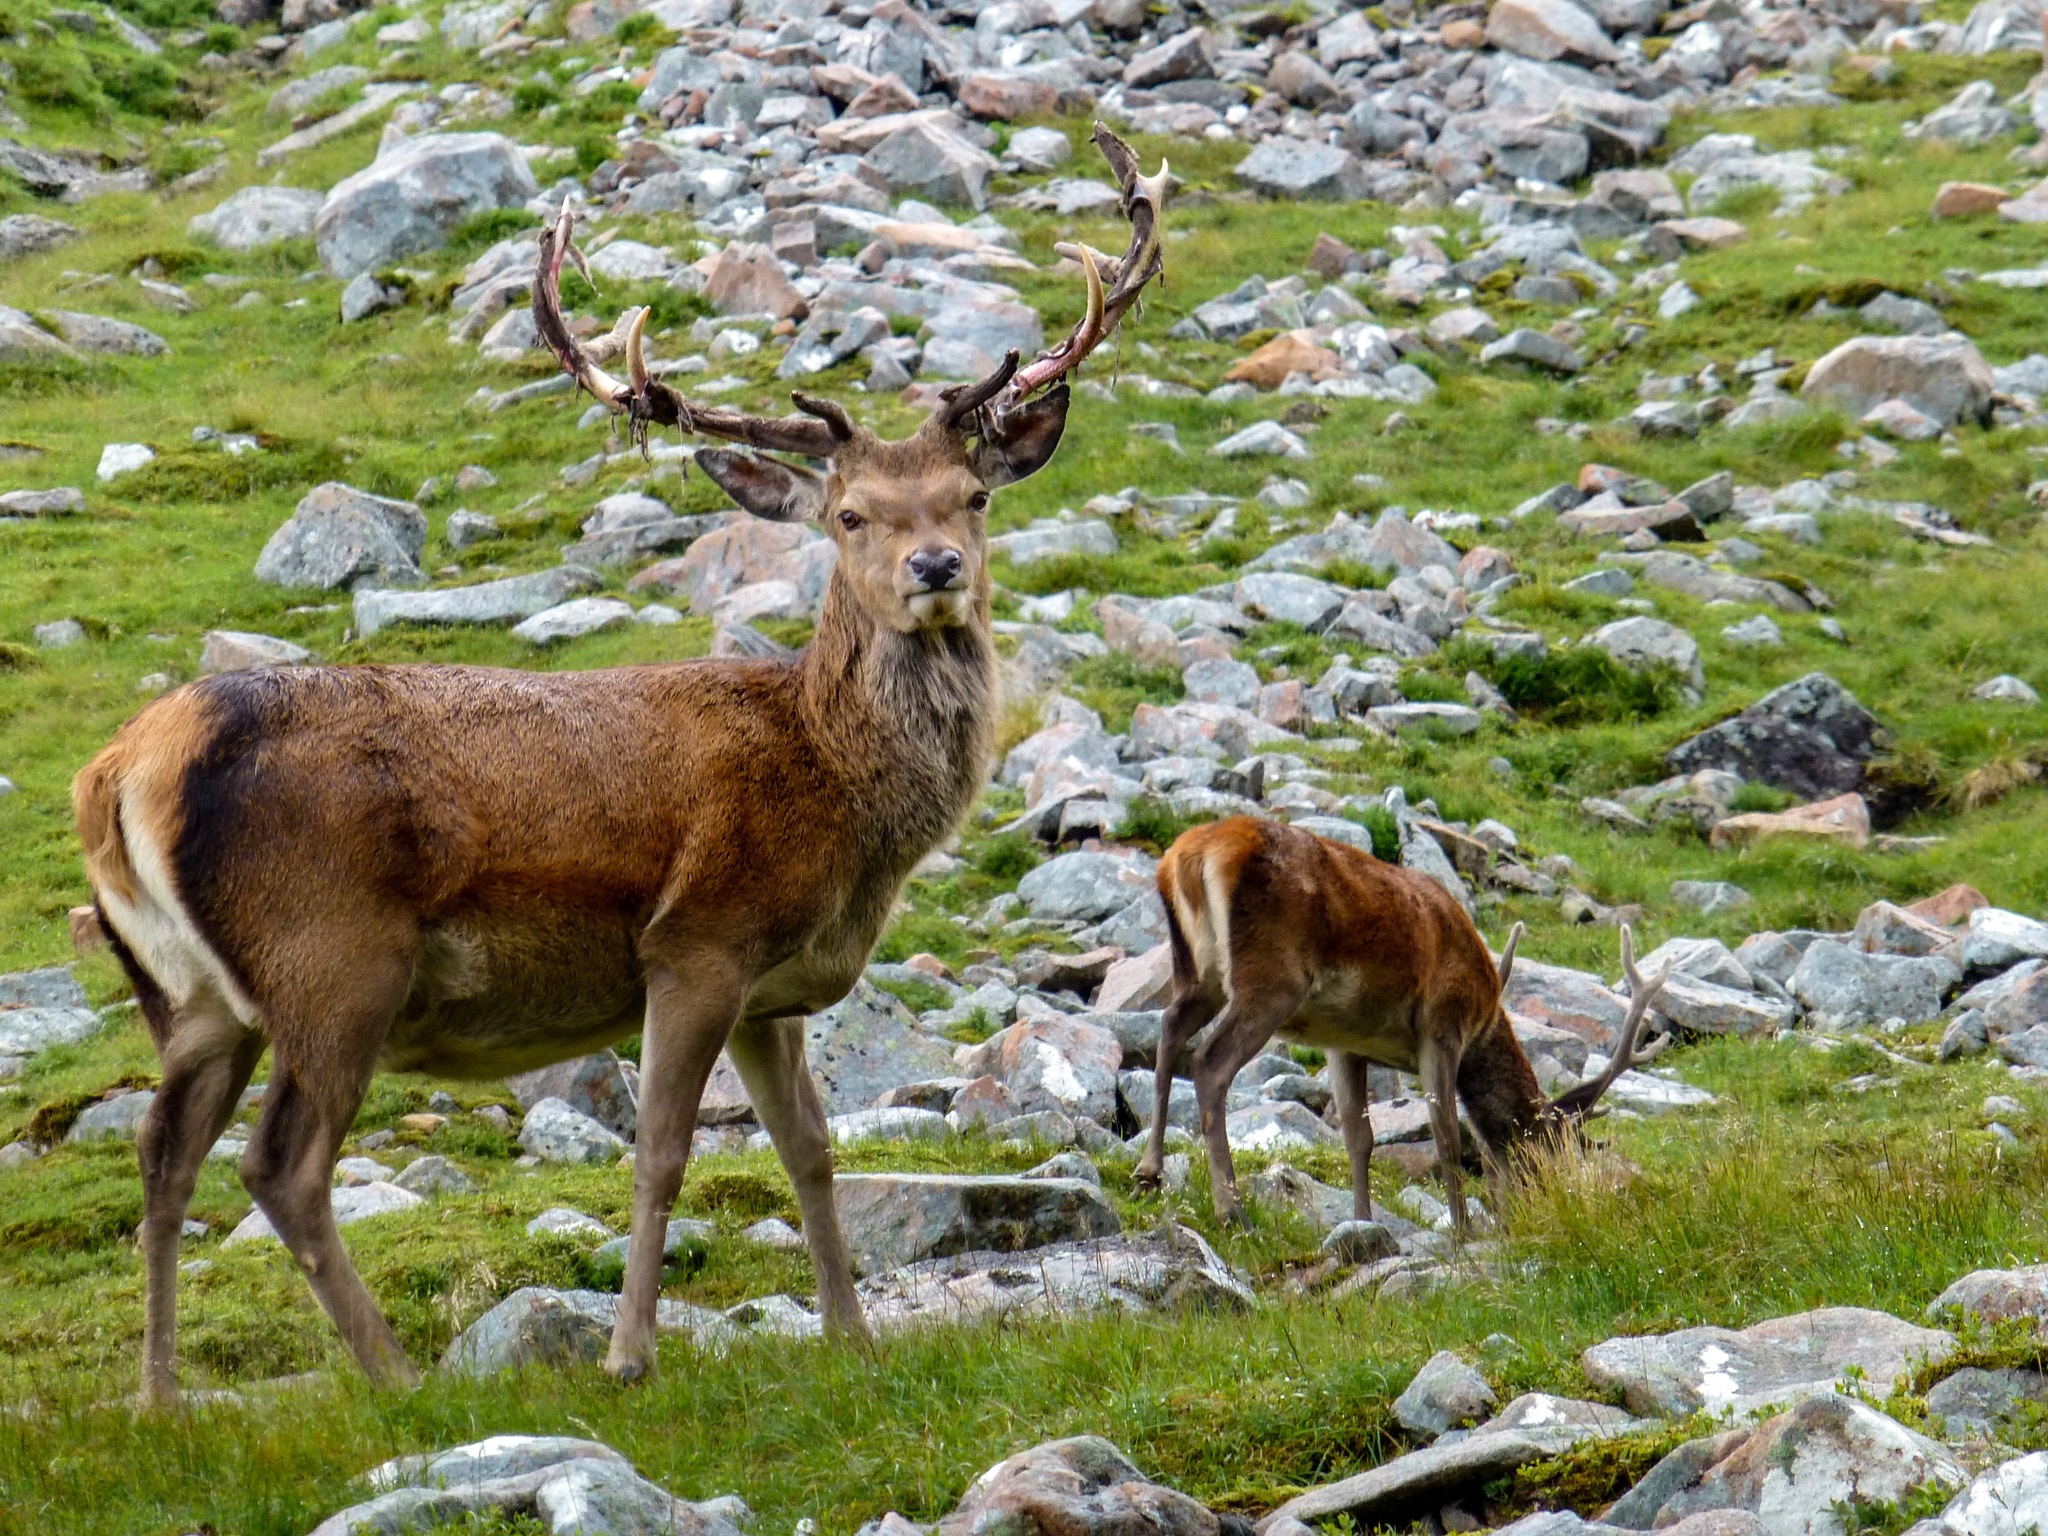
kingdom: Animalia
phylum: Chordata
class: Mammalia
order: Artiodactyla
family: Cervidae
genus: Cervus
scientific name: Cervus elaphus
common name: Red deer
